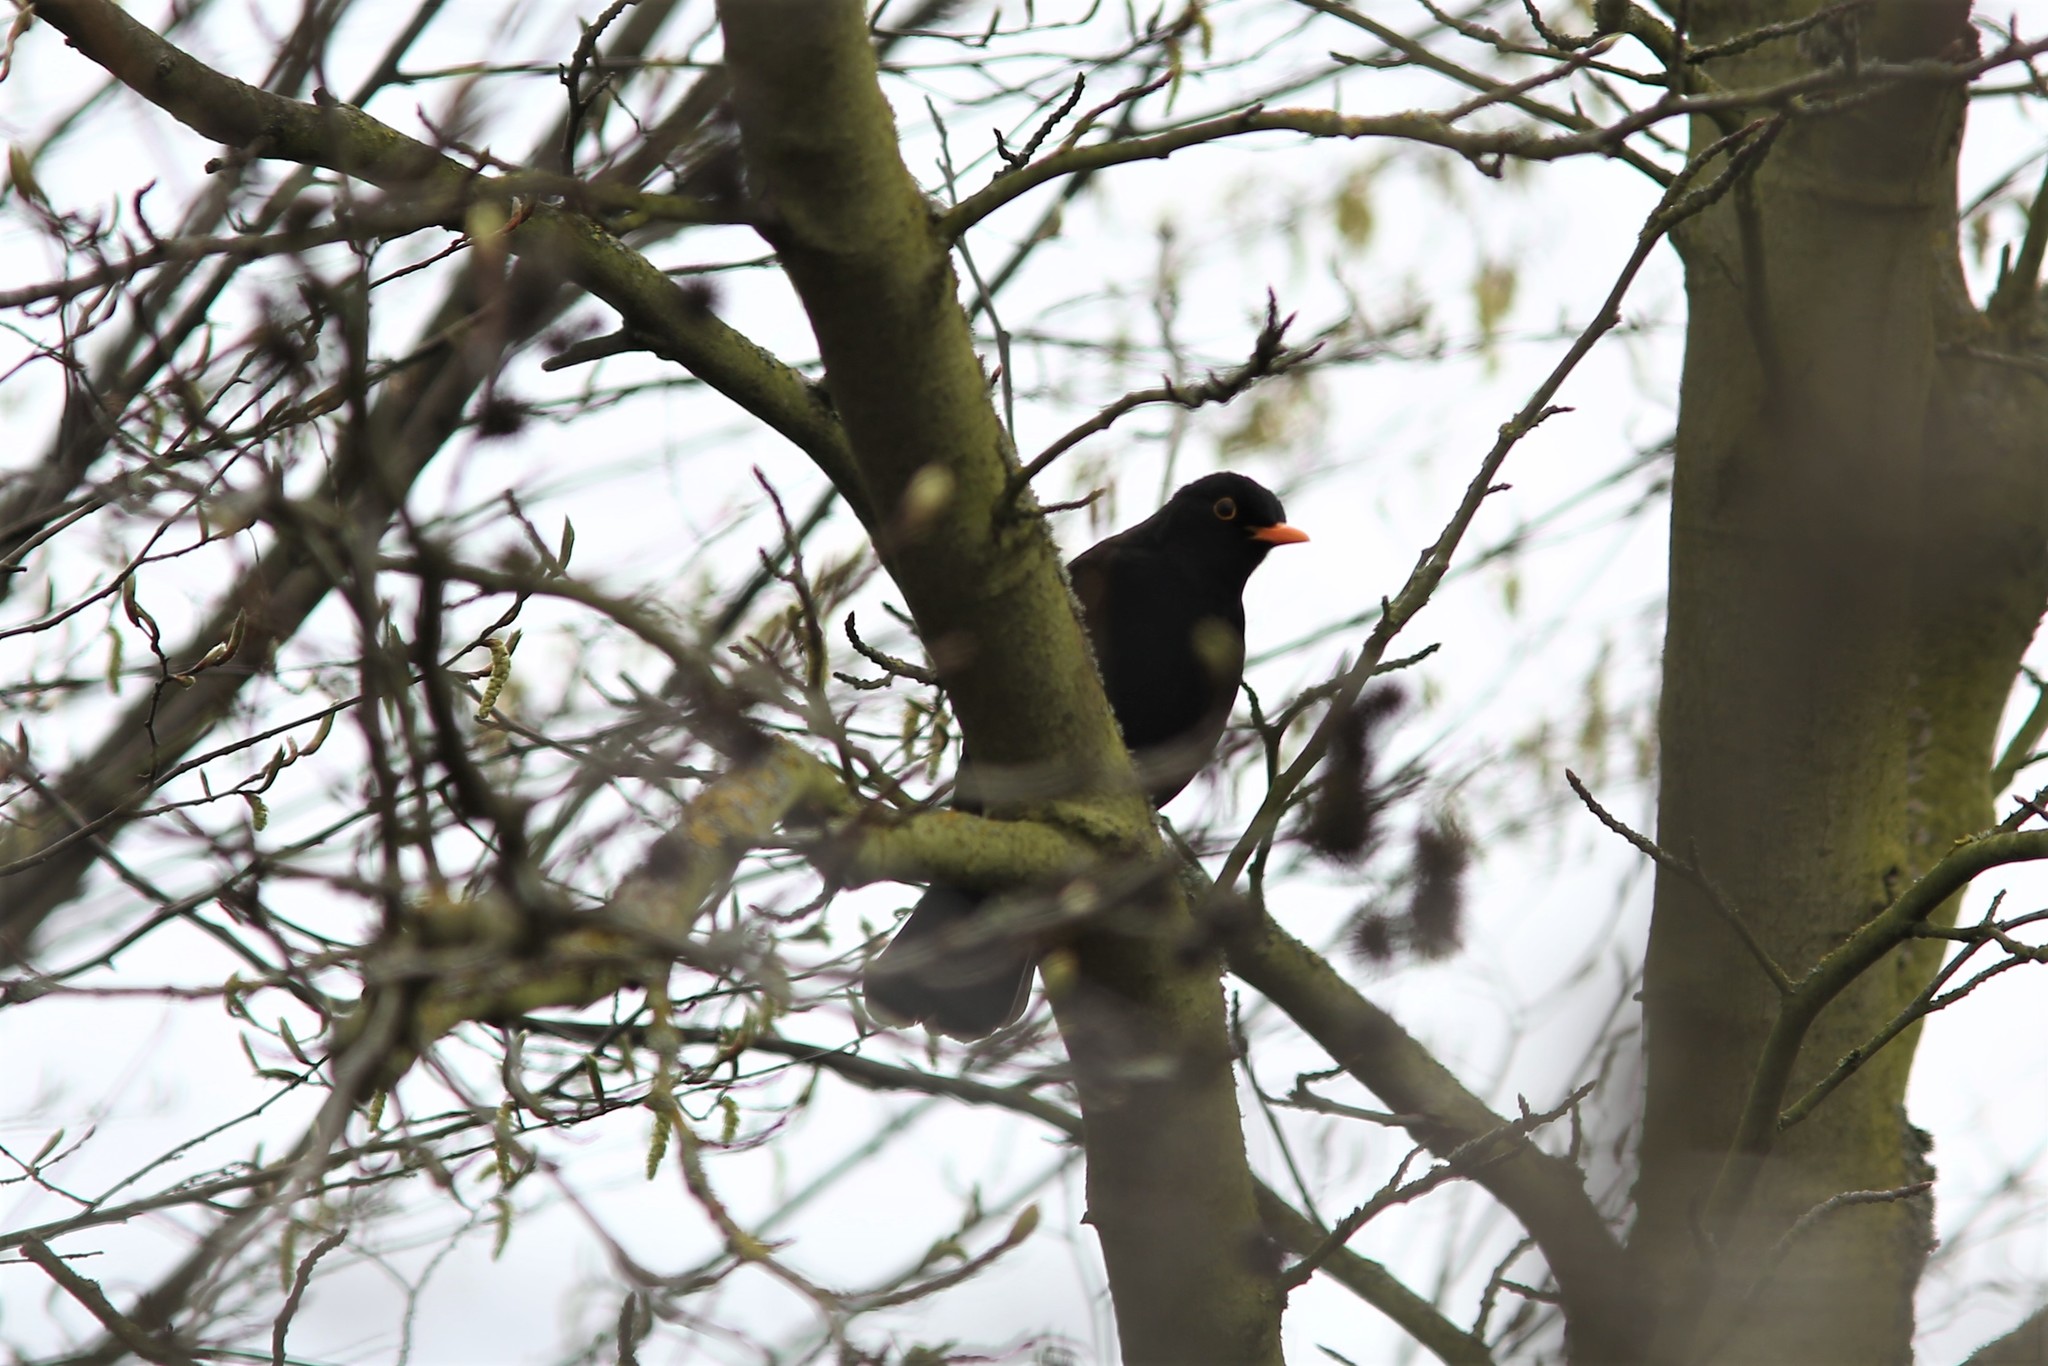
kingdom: Animalia
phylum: Chordata
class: Aves
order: Passeriformes
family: Turdidae
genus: Turdus
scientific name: Turdus merula
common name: Common blackbird
